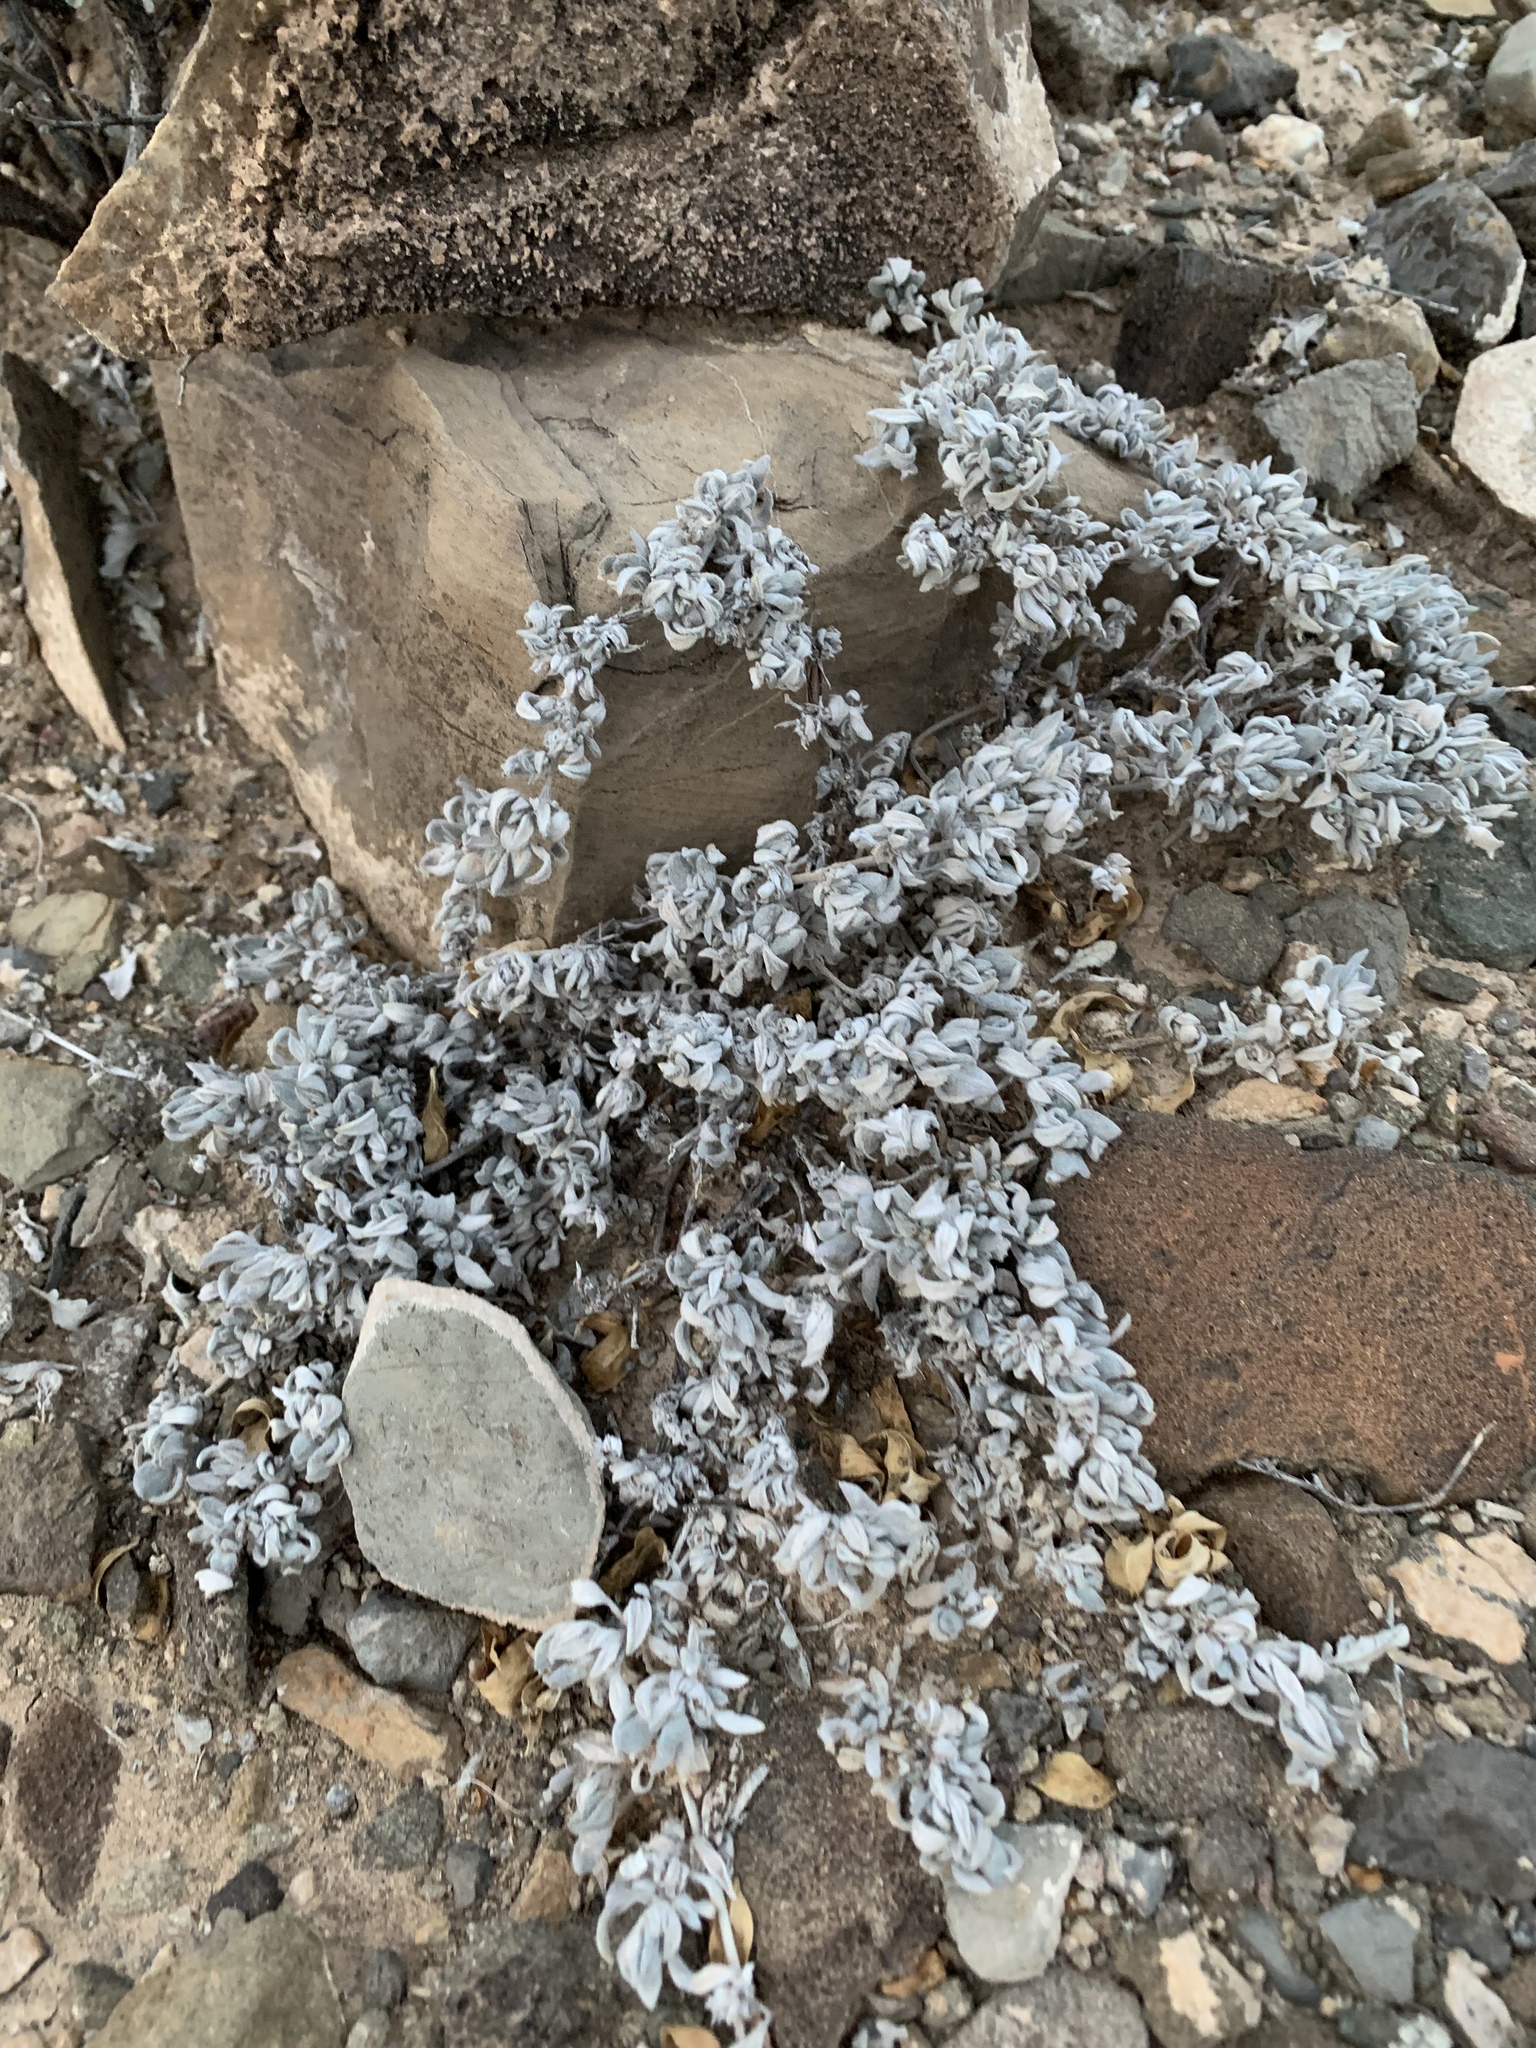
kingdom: Plantae
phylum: Tracheophyta
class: Magnoliopsida
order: Boraginales
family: Ehretiaceae
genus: Tiquilia
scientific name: Tiquilia canescens
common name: Hairy tiquilia
